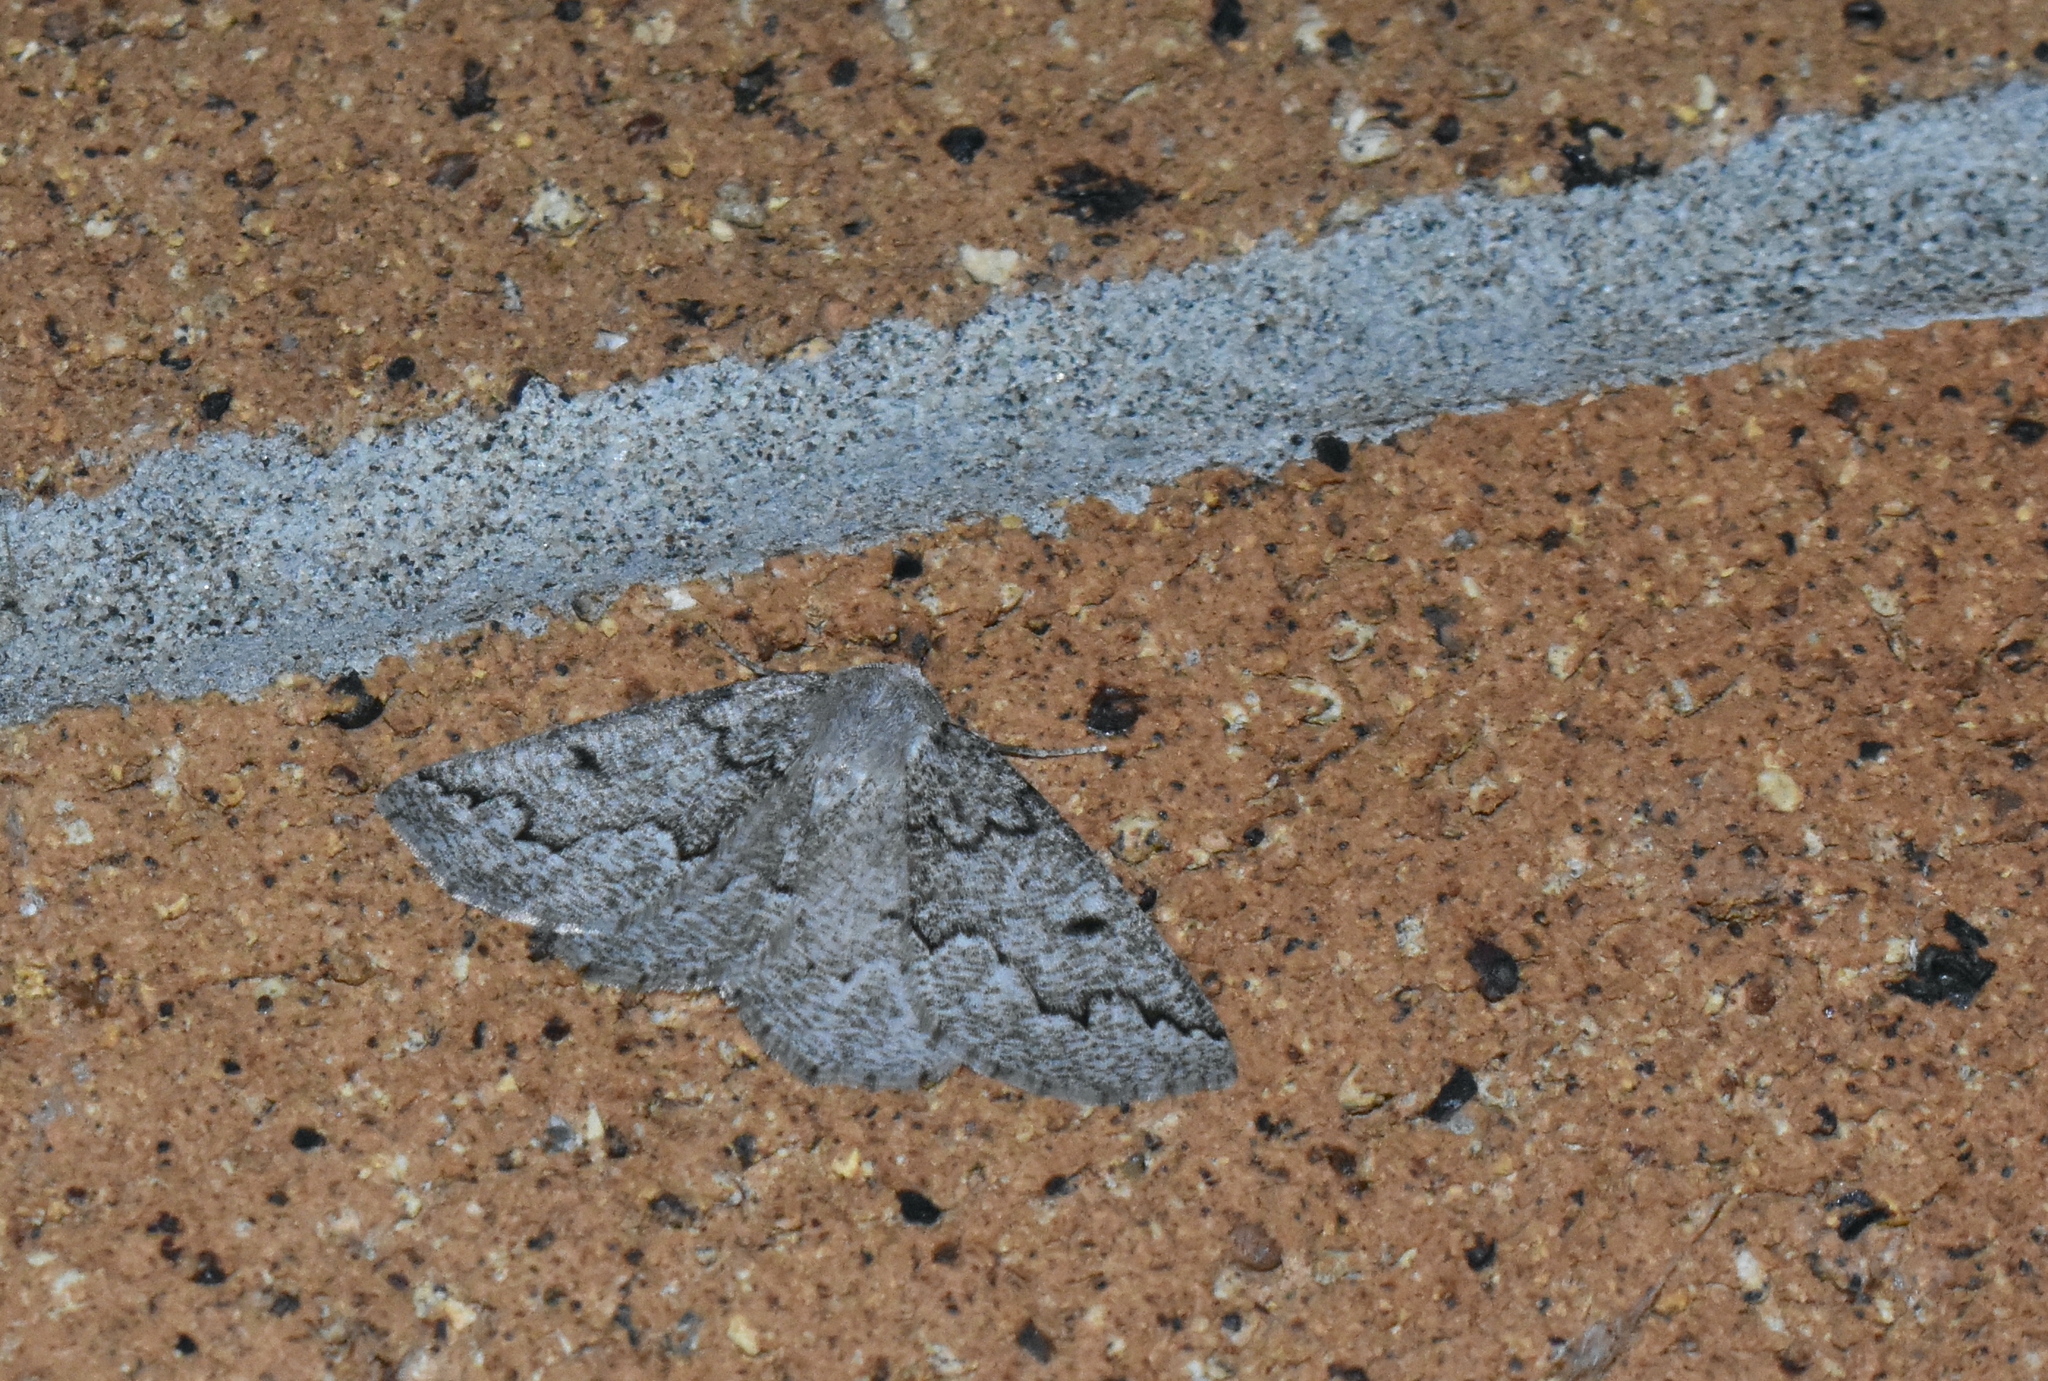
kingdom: Animalia
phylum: Arthropoda
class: Insecta
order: Lepidoptera
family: Geometridae
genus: Sabulodes
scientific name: Sabulodes
